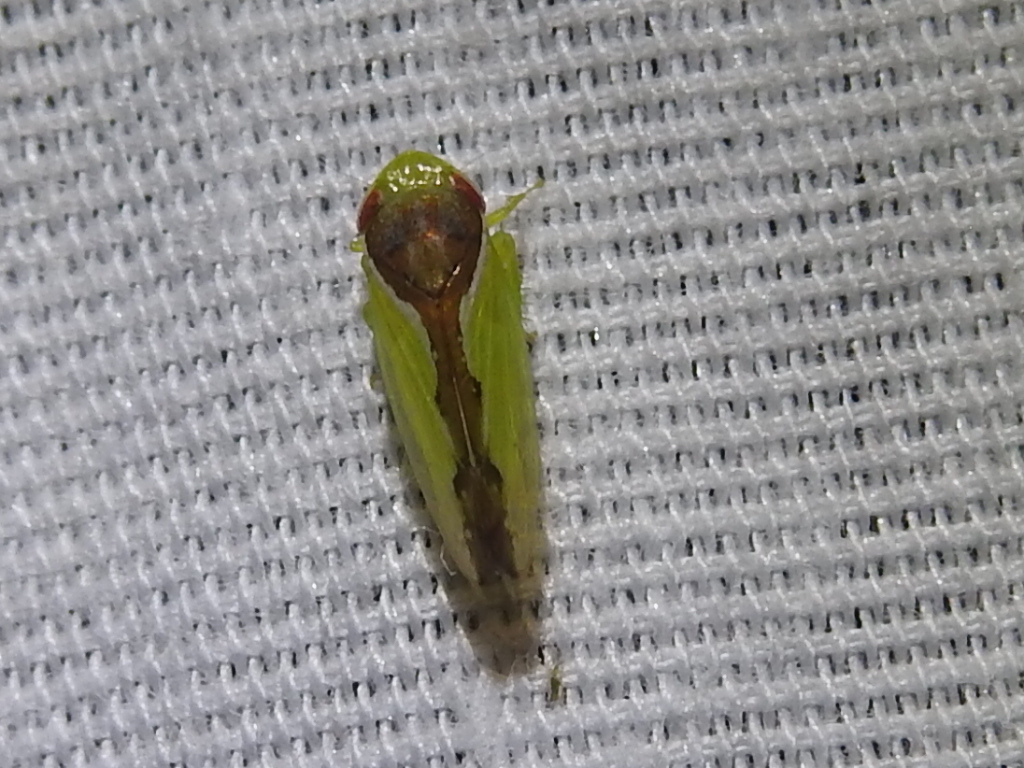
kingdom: Animalia
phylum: Arthropoda
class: Insecta
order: Hemiptera
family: Cicadellidae
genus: Omansobara ing
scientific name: Omansobara ing Omansobara palliolata
